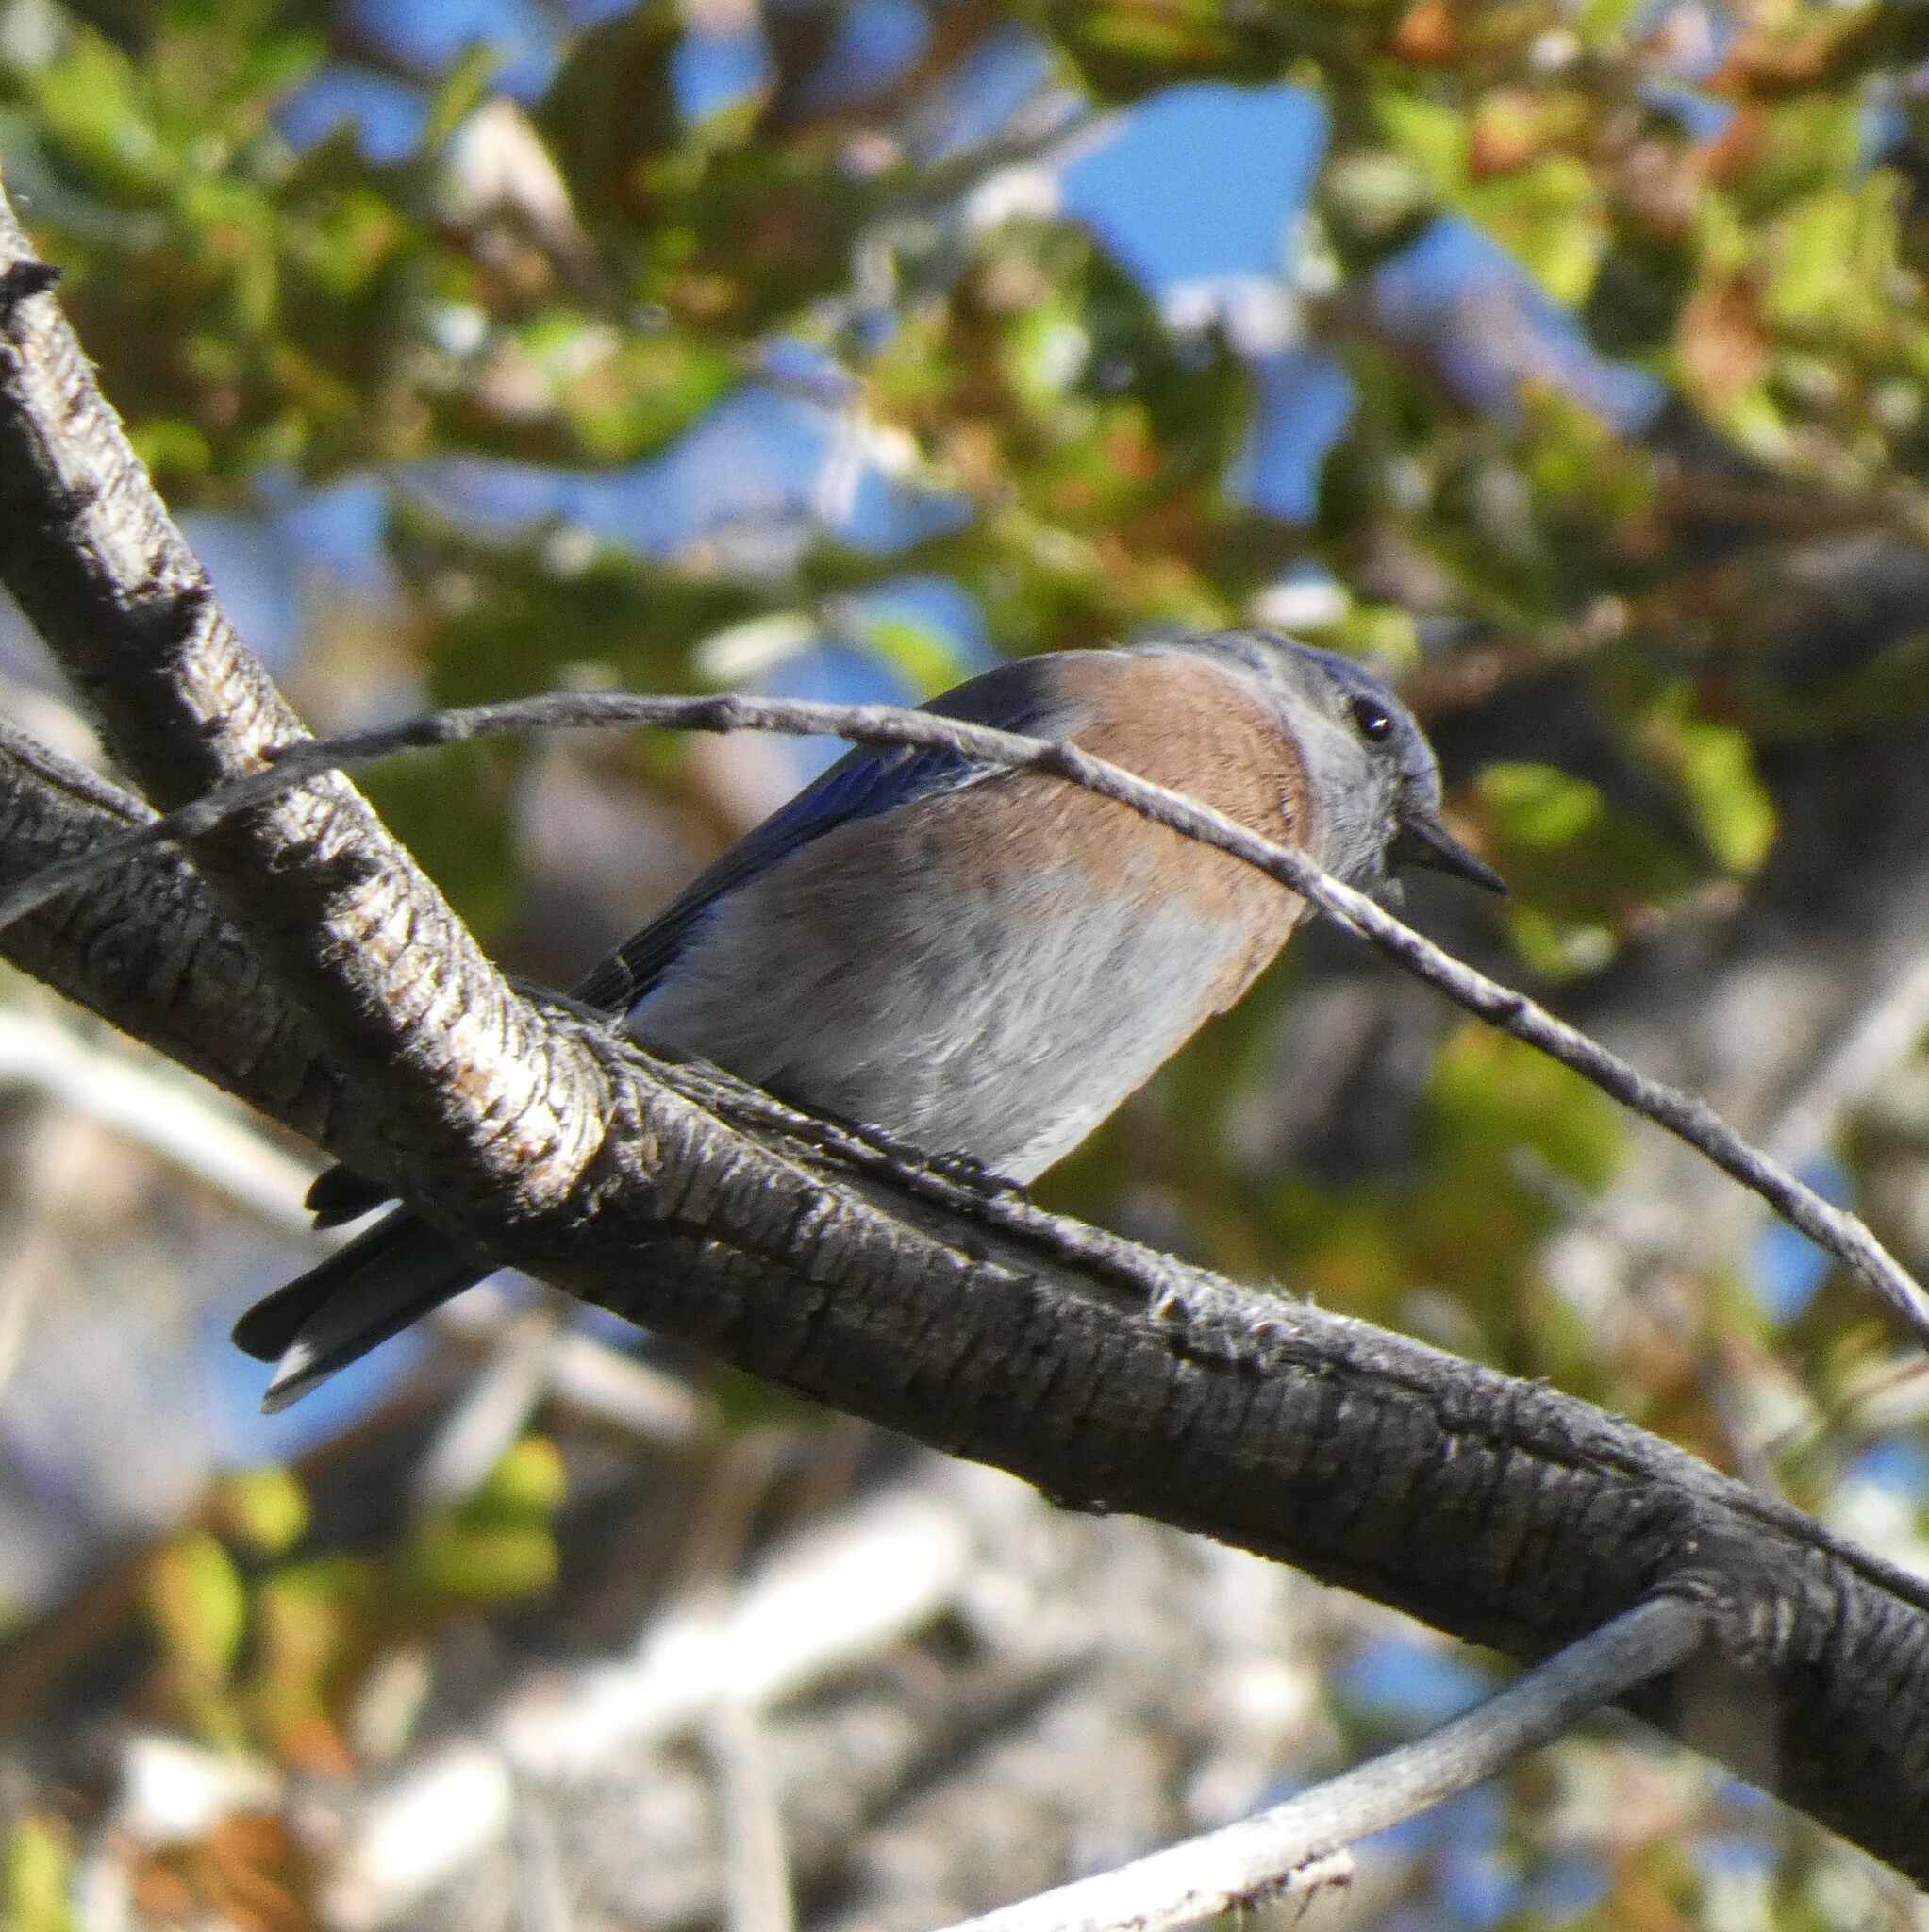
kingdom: Animalia
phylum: Chordata
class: Aves
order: Passeriformes
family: Turdidae
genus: Sialia
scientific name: Sialia mexicana
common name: Western bluebird
